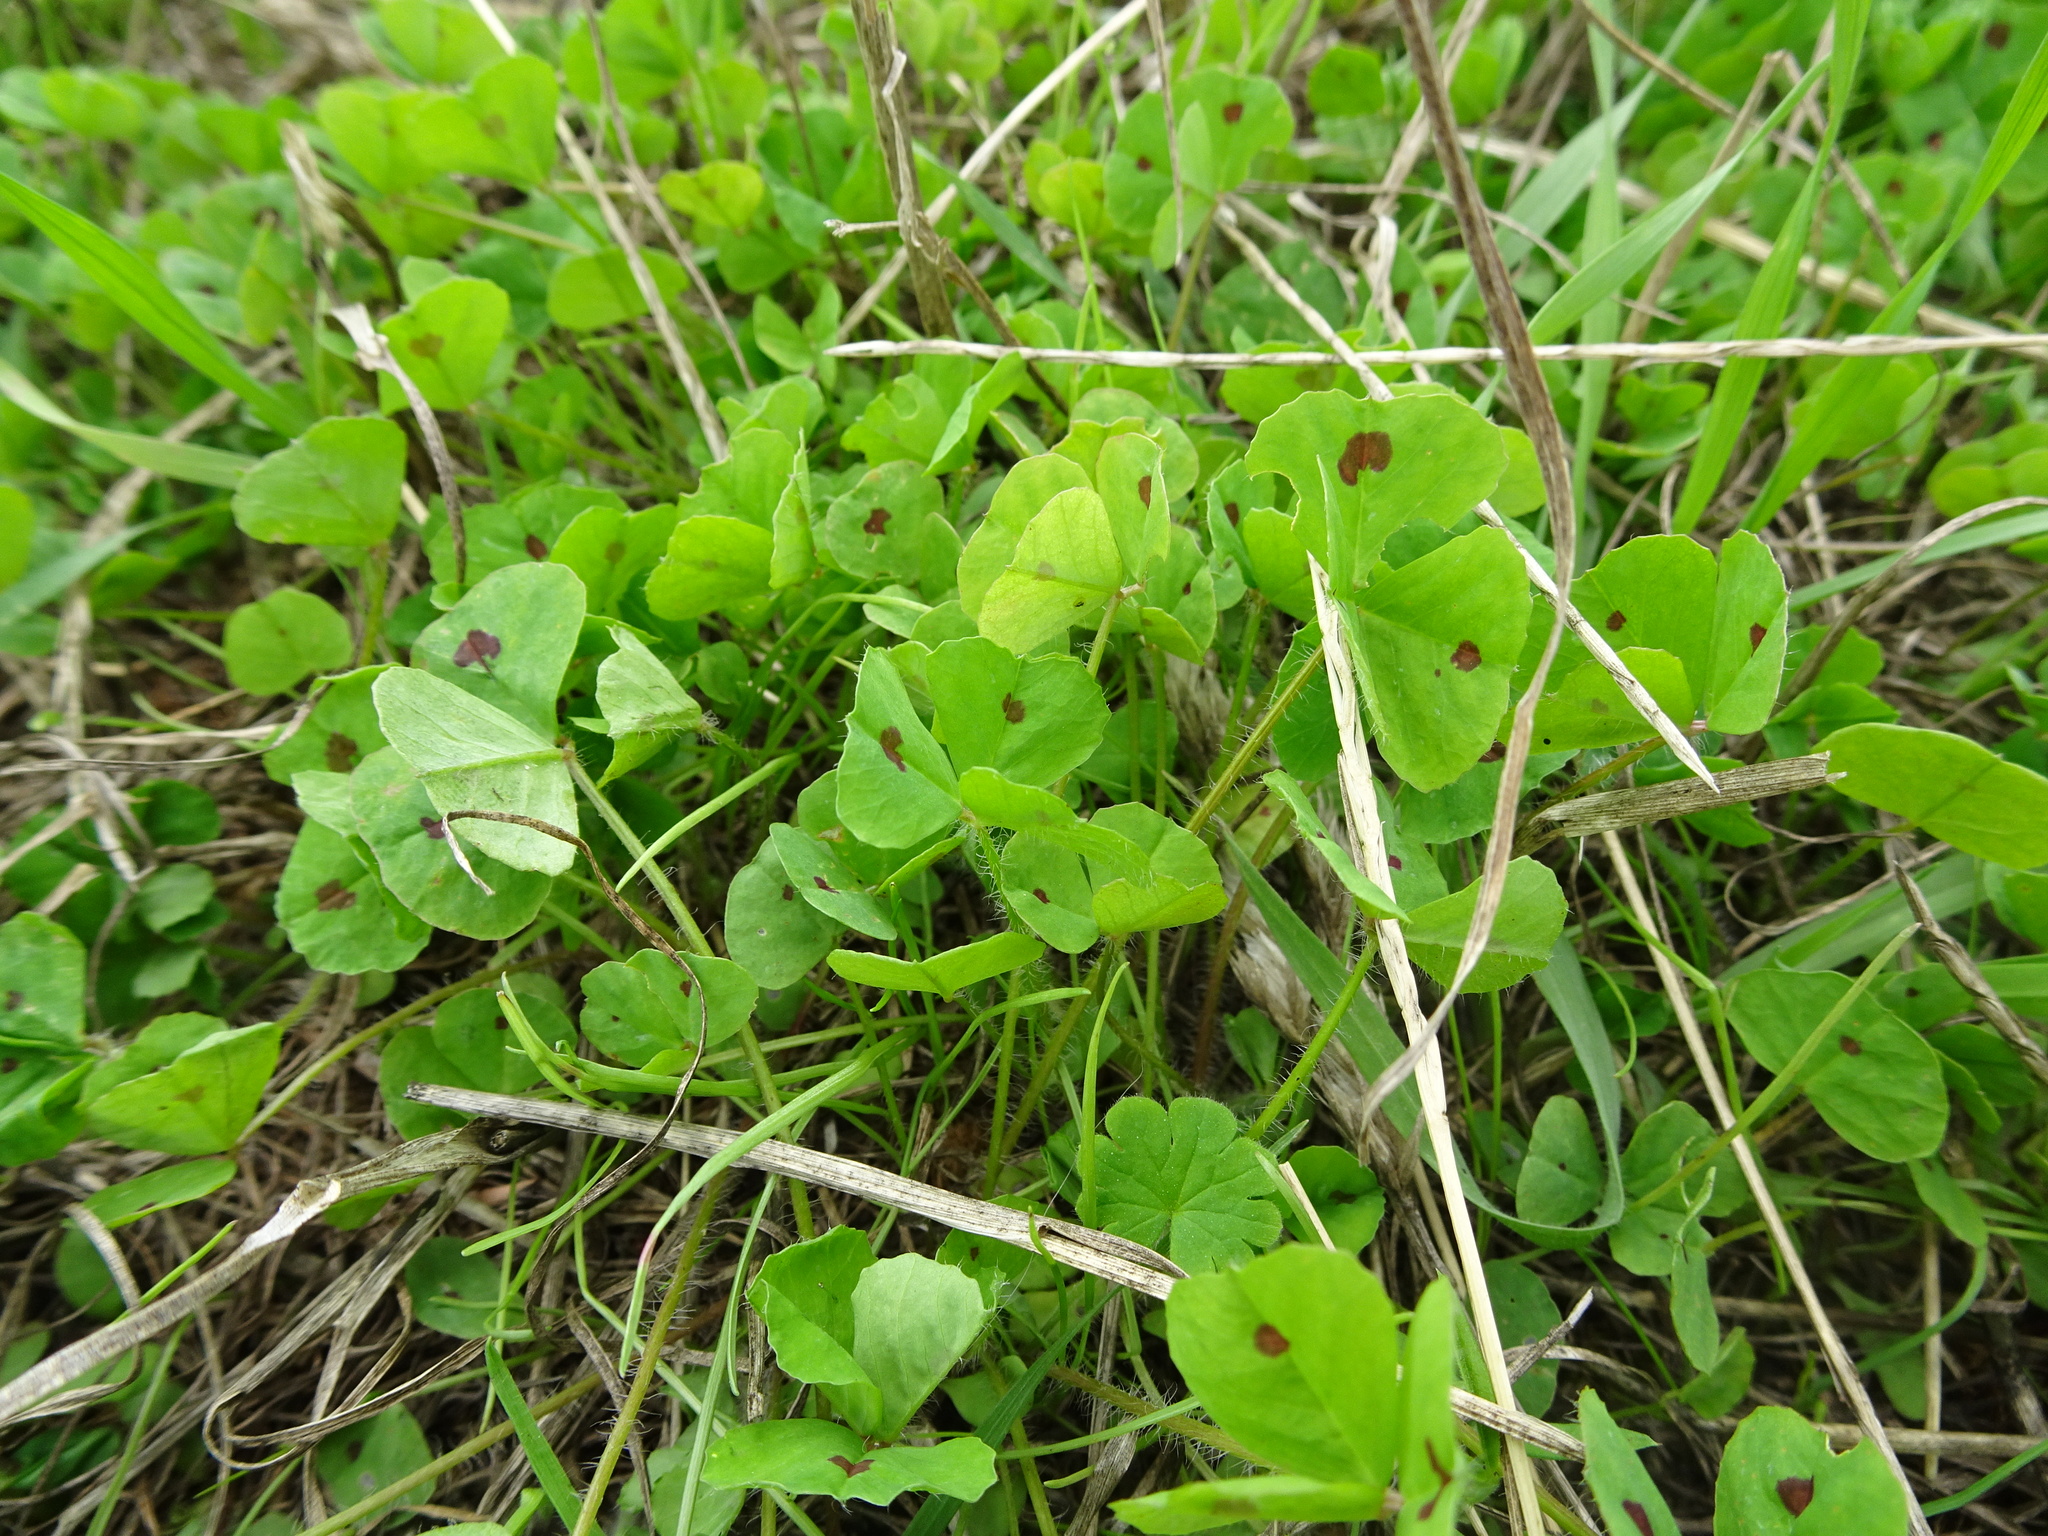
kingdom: Plantae
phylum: Tracheophyta
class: Magnoliopsida
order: Fabales
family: Fabaceae
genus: Medicago
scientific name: Medicago arabica
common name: Spotted medick
